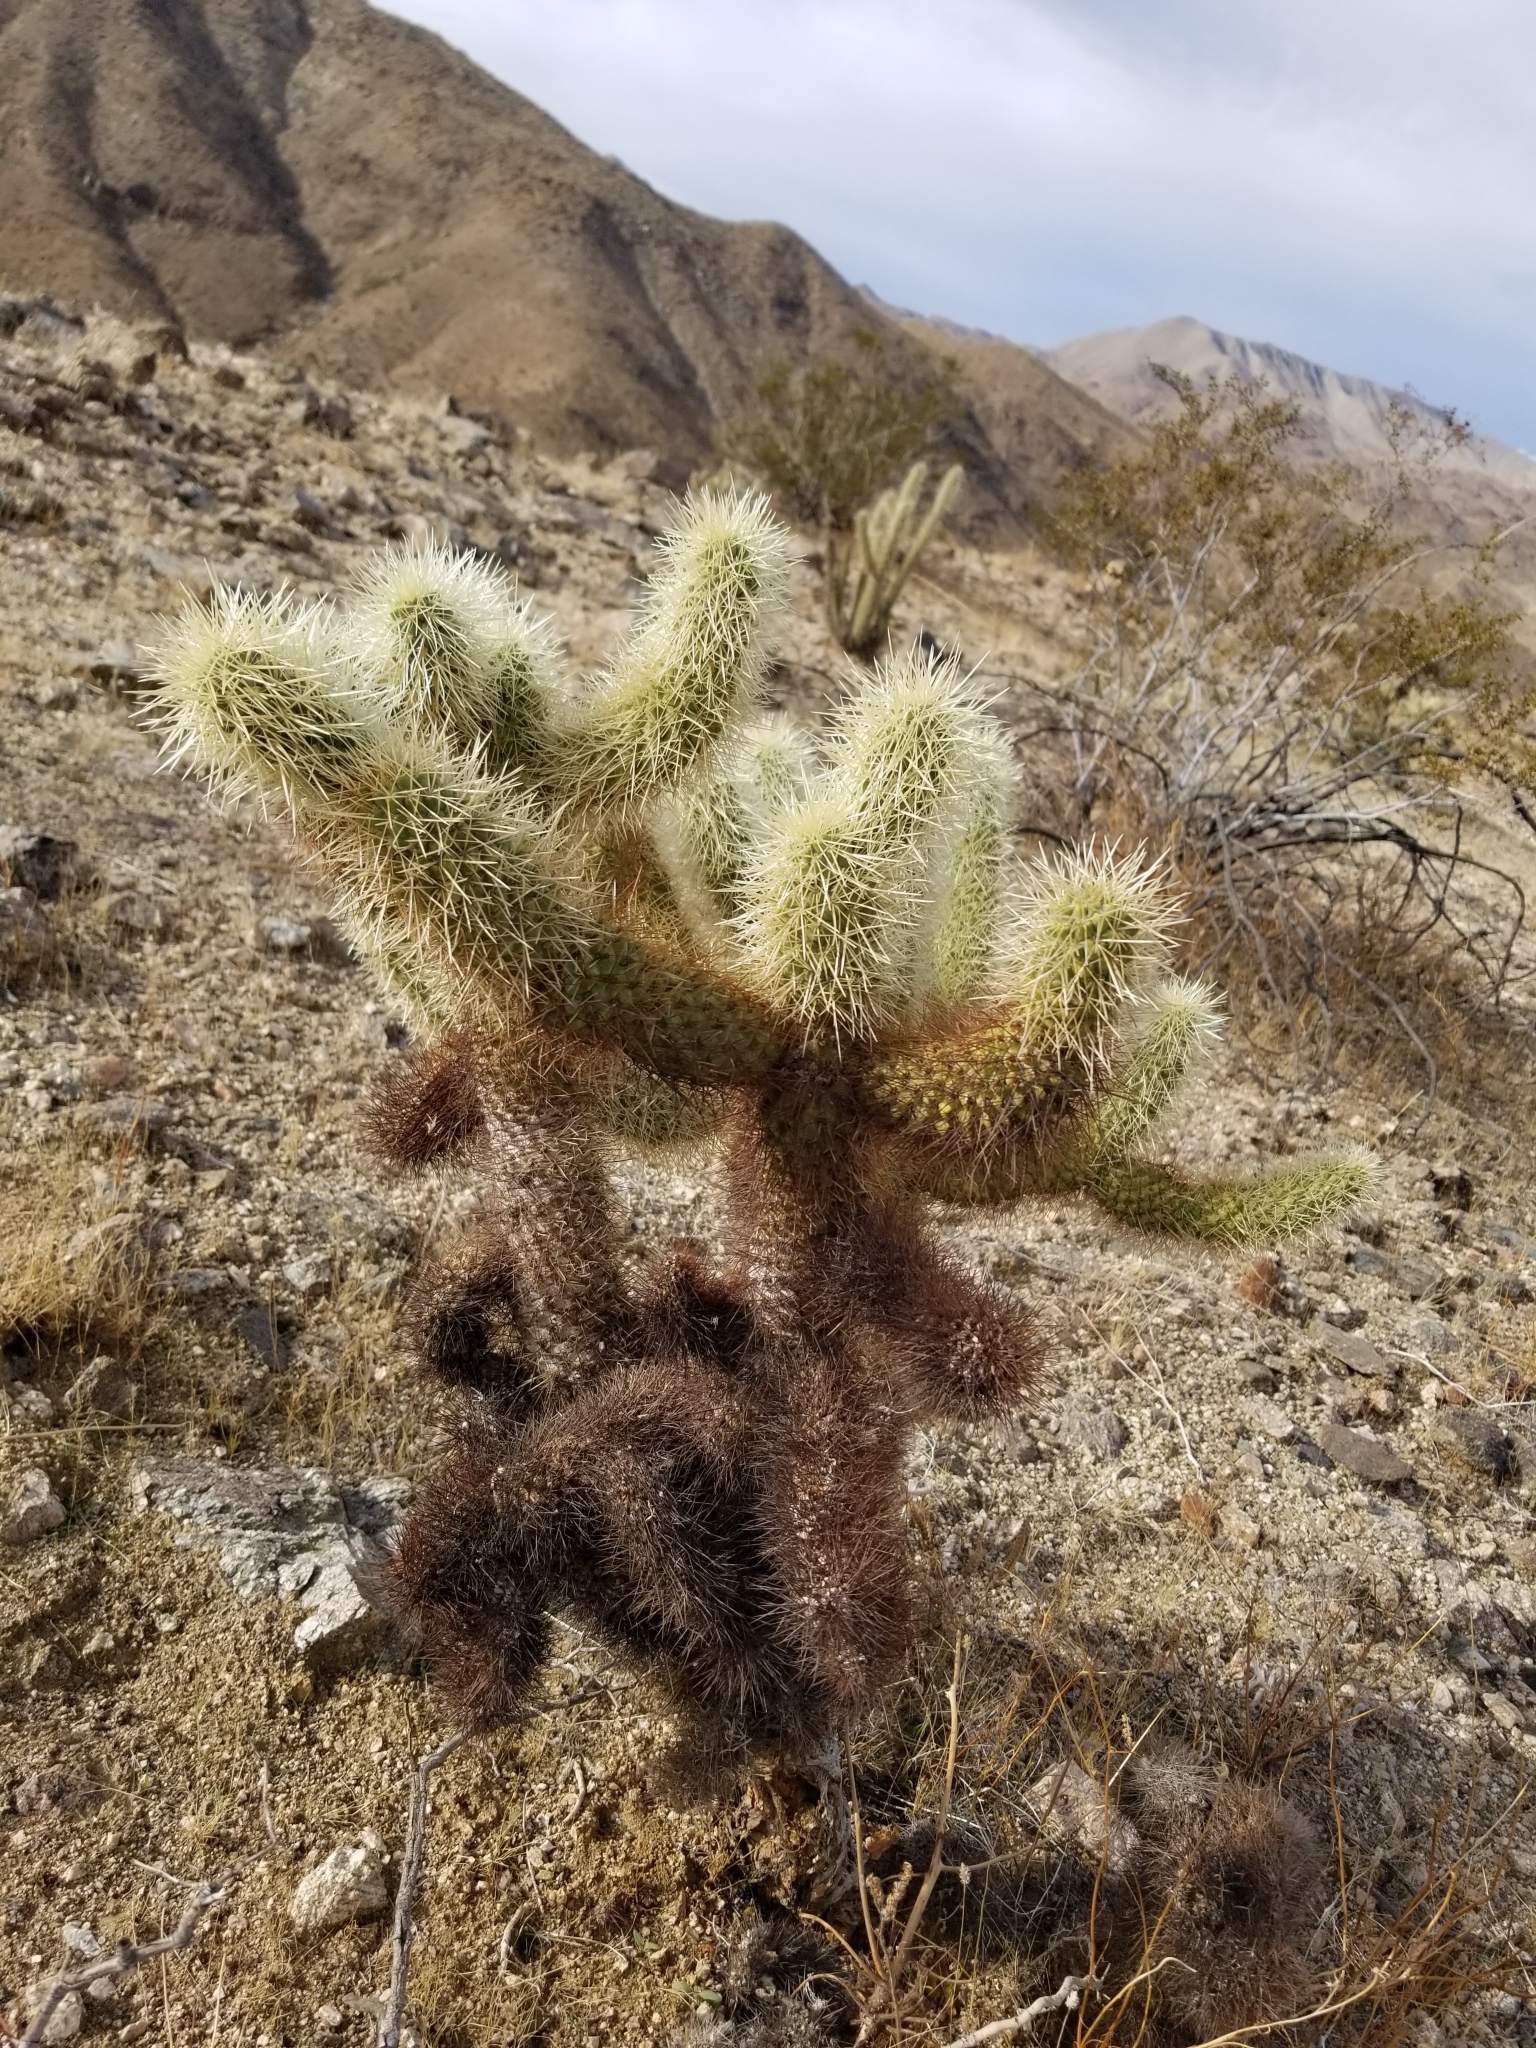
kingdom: Plantae
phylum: Tracheophyta
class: Magnoliopsida
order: Caryophyllales
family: Cactaceae
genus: Cylindropuntia
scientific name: Cylindropuntia fosbergii
